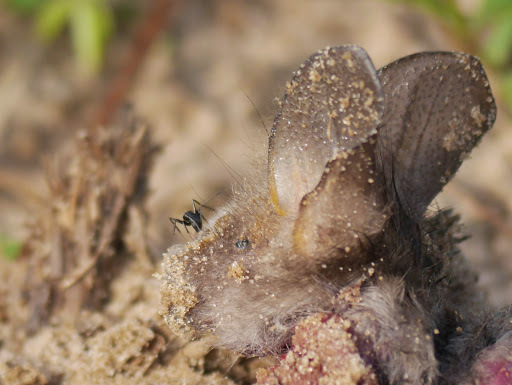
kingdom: Animalia
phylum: Chordata
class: Mammalia
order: Chiroptera
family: Nycteridae
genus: Nycteris
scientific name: Nycteris hispida
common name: Hairy slit-faced bat
